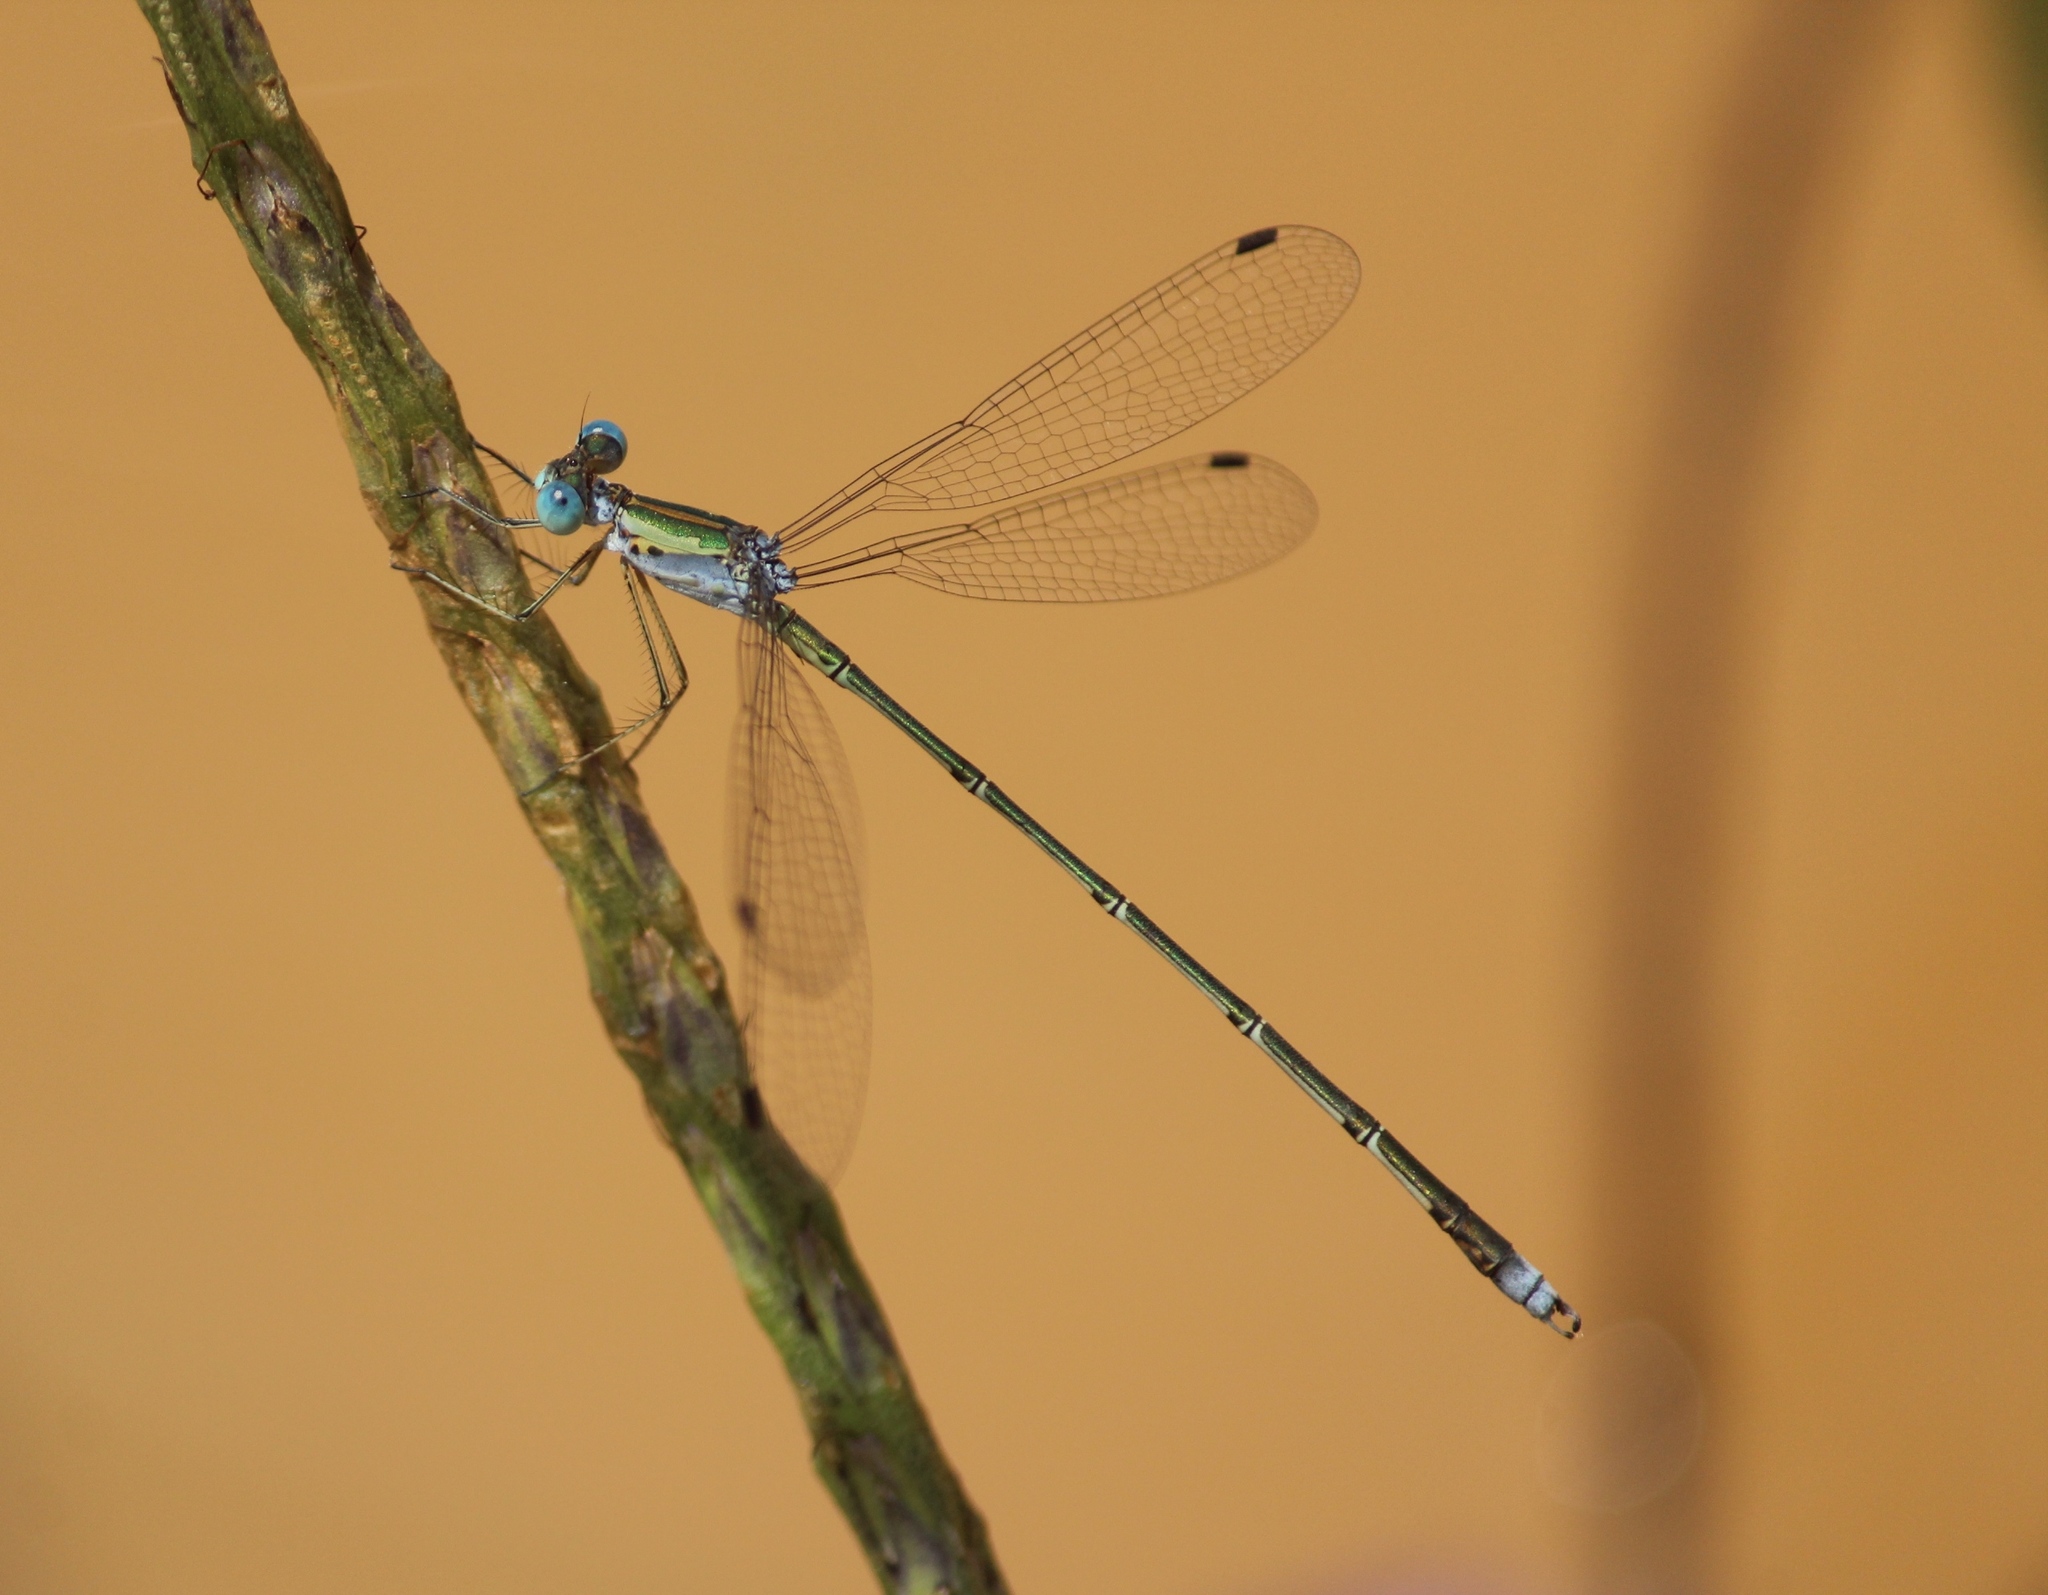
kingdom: Animalia
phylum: Arthropoda
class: Insecta
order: Odonata
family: Lestidae
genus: Lestes
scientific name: Lestes elatus
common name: Emerald spreadwing
